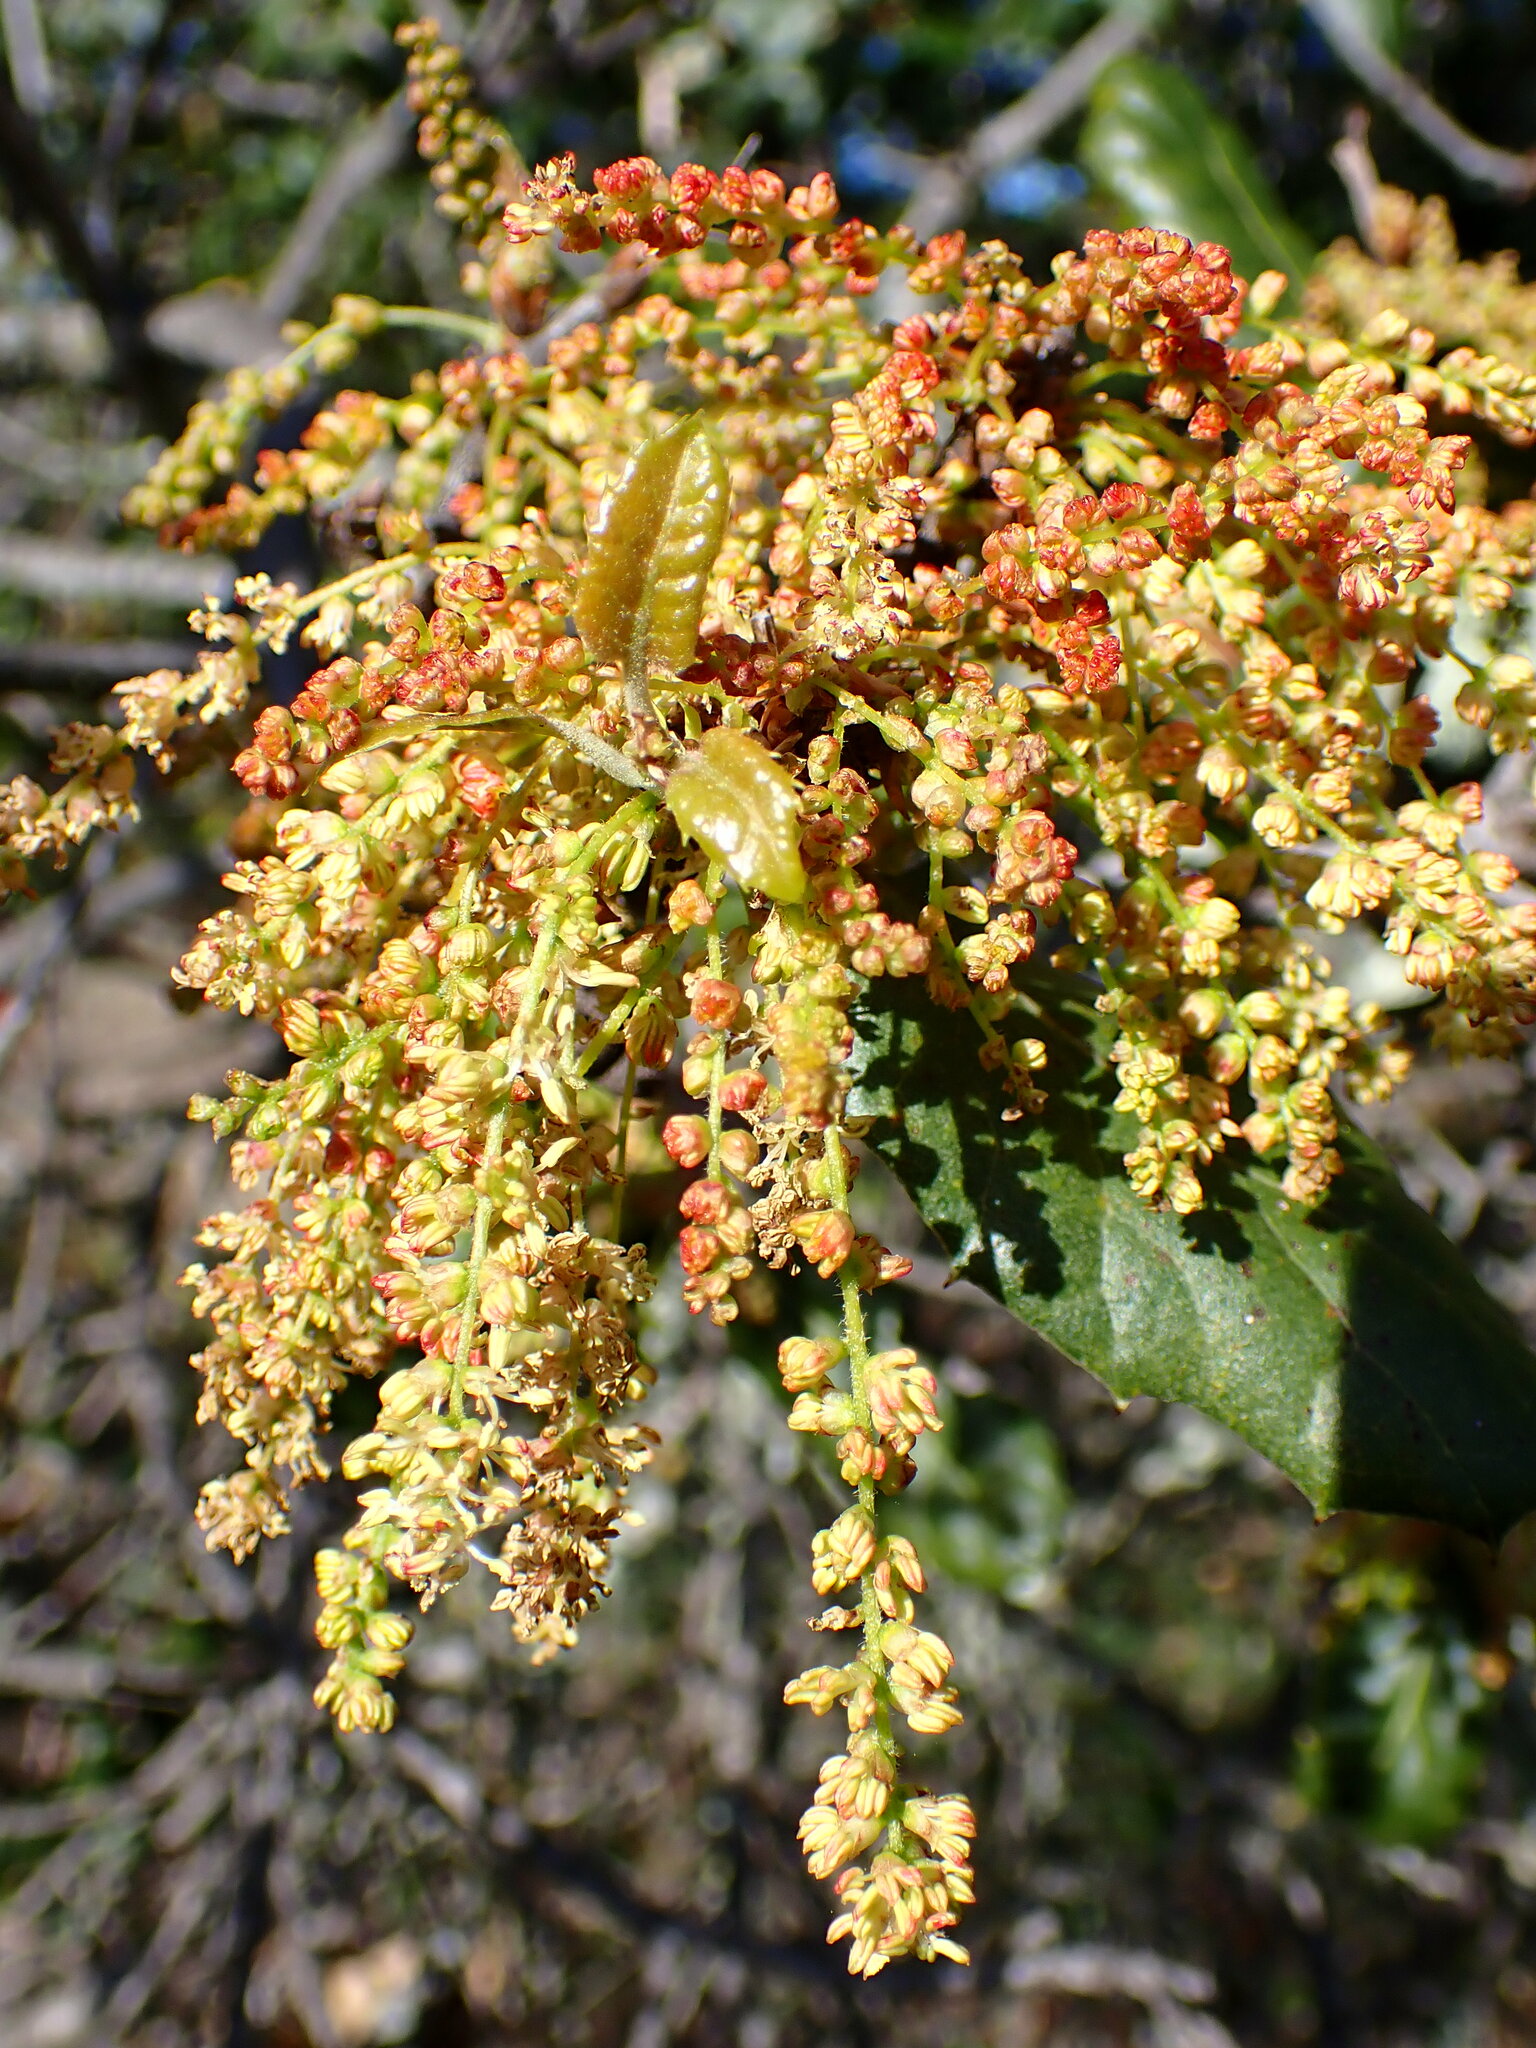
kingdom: Plantae
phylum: Tracheophyta
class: Magnoliopsida
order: Fagales
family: Fagaceae
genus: Quercus
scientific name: Quercus agrifolia
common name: California live oak
